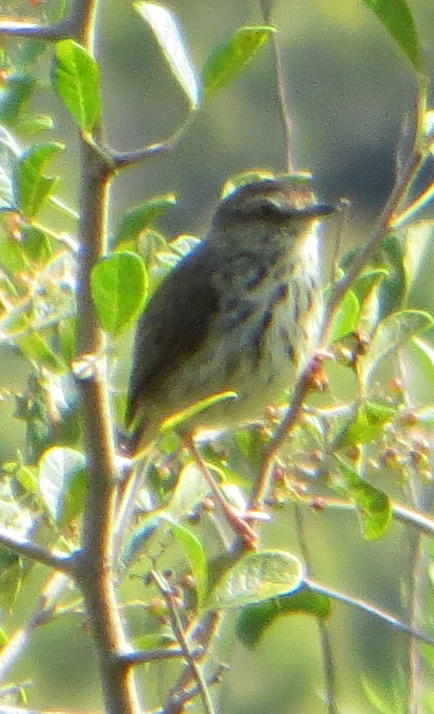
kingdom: Animalia
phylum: Chordata
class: Aves
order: Passeriformes
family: Cisticolidae
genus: Prinia
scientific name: Prinia maculosa
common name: Karoo prinia
